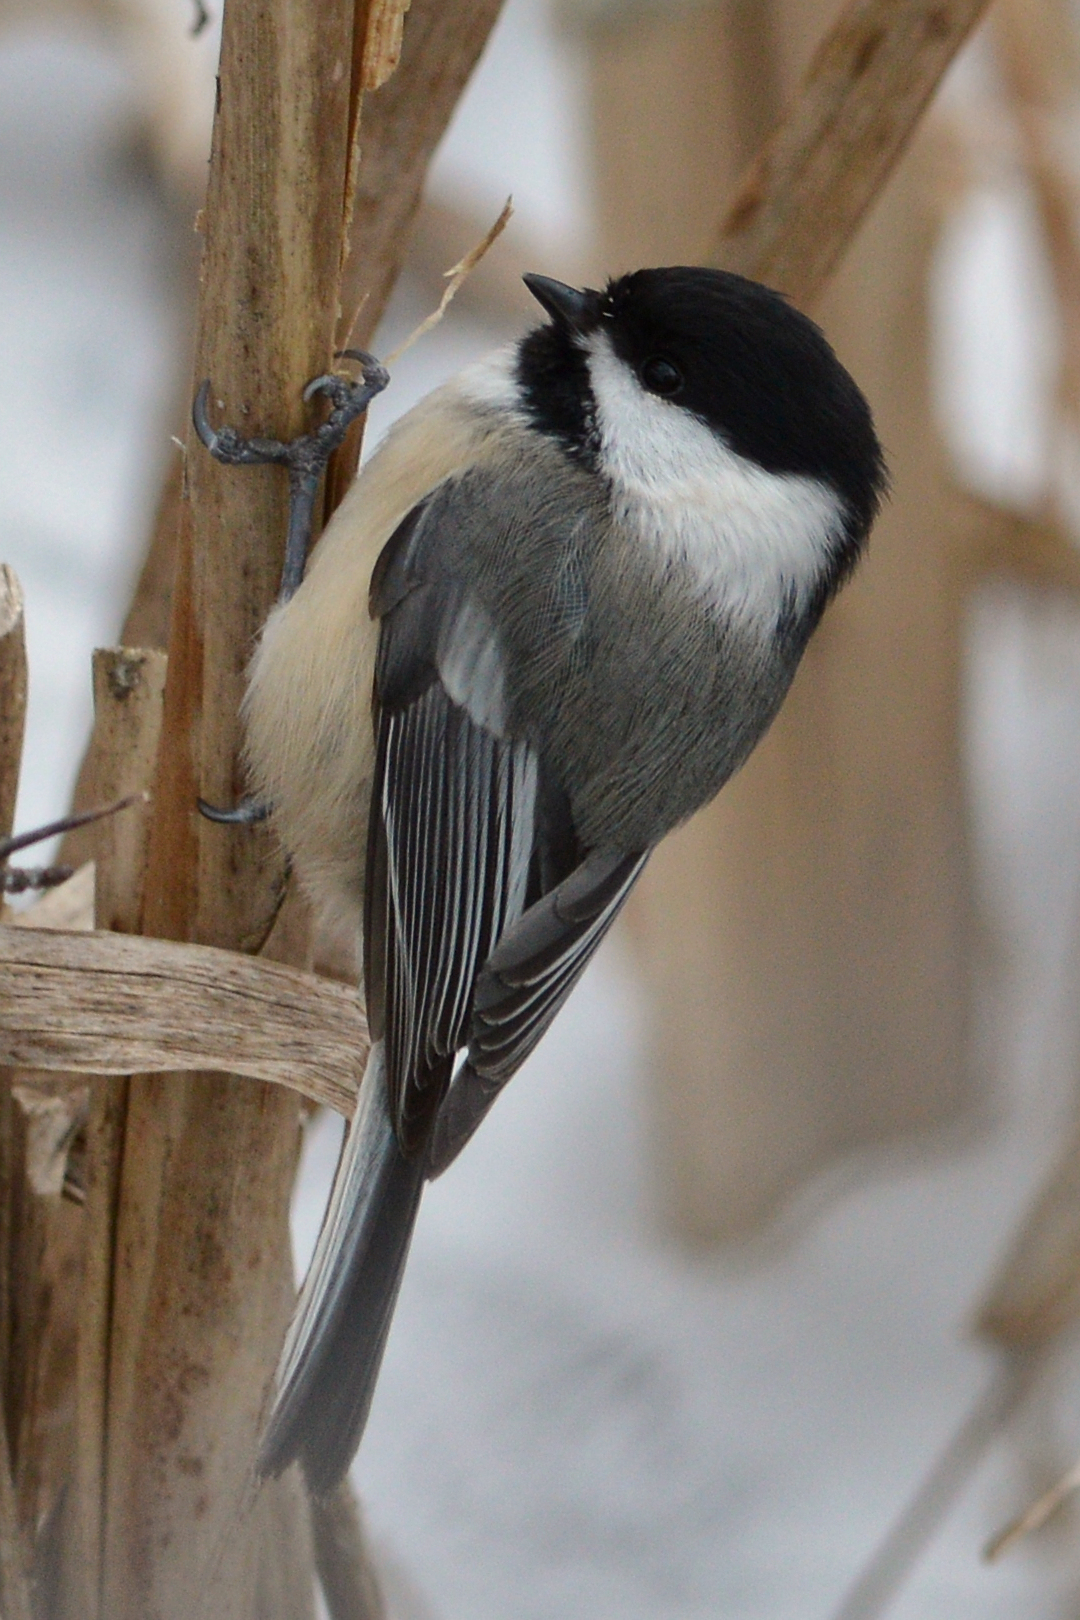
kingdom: Animalia
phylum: Chordata
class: Aves
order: Passeriformes
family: Paridae
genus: Poecile
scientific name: Poecile atricapillus
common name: Black-capped chickadee
